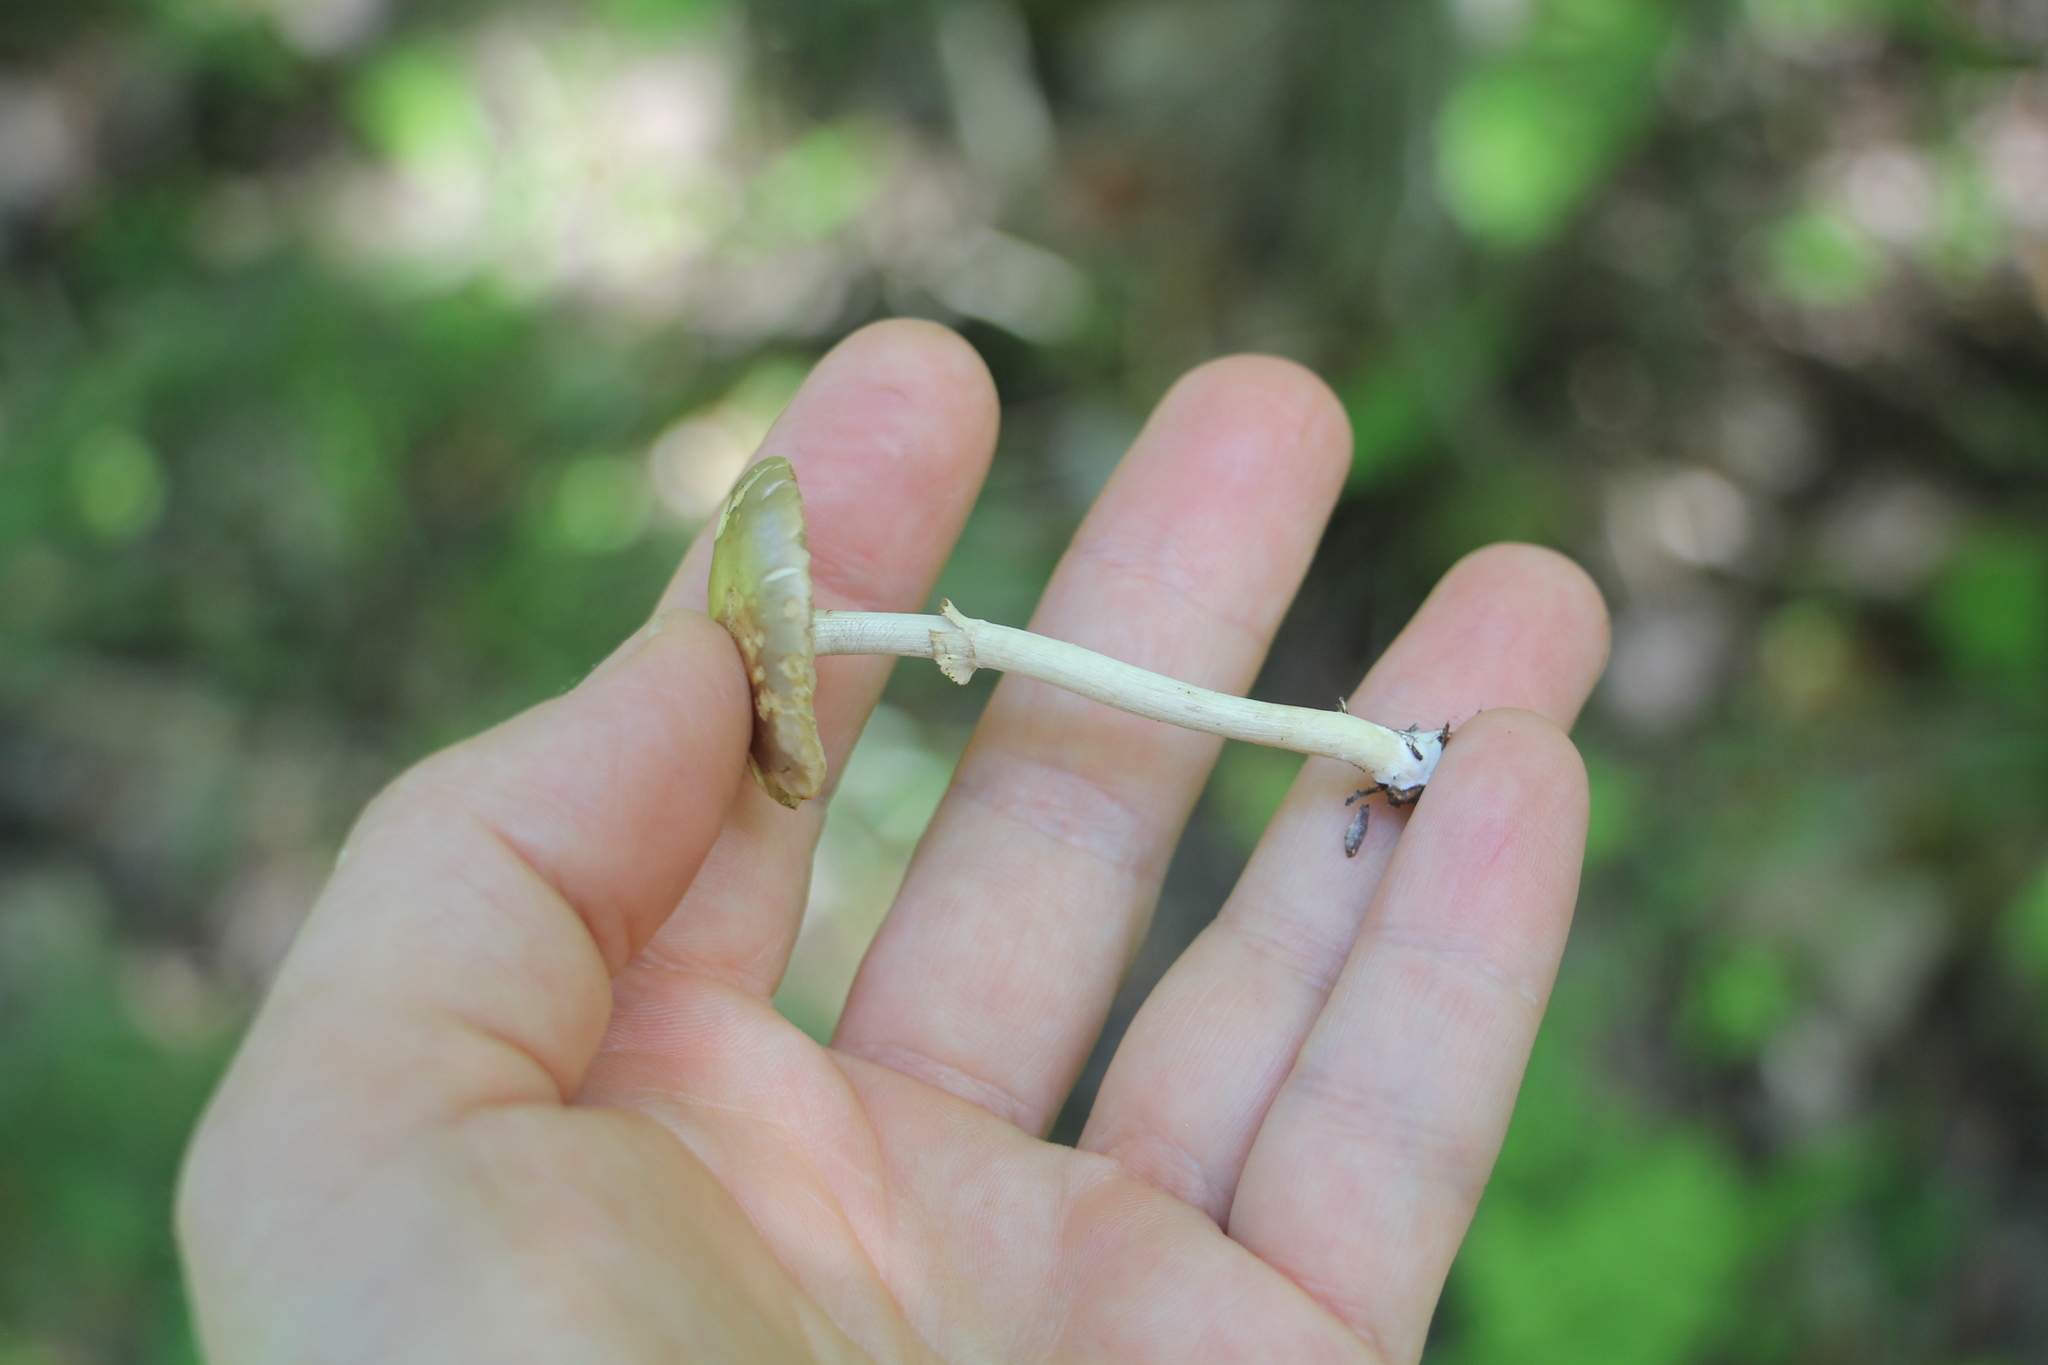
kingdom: Fungi
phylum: Basidiomycota
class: Agaricomycetes
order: Agaricales
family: Strophariaceae
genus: Agrocybe
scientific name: Agrocybe praecox
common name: Spring fieldcap
